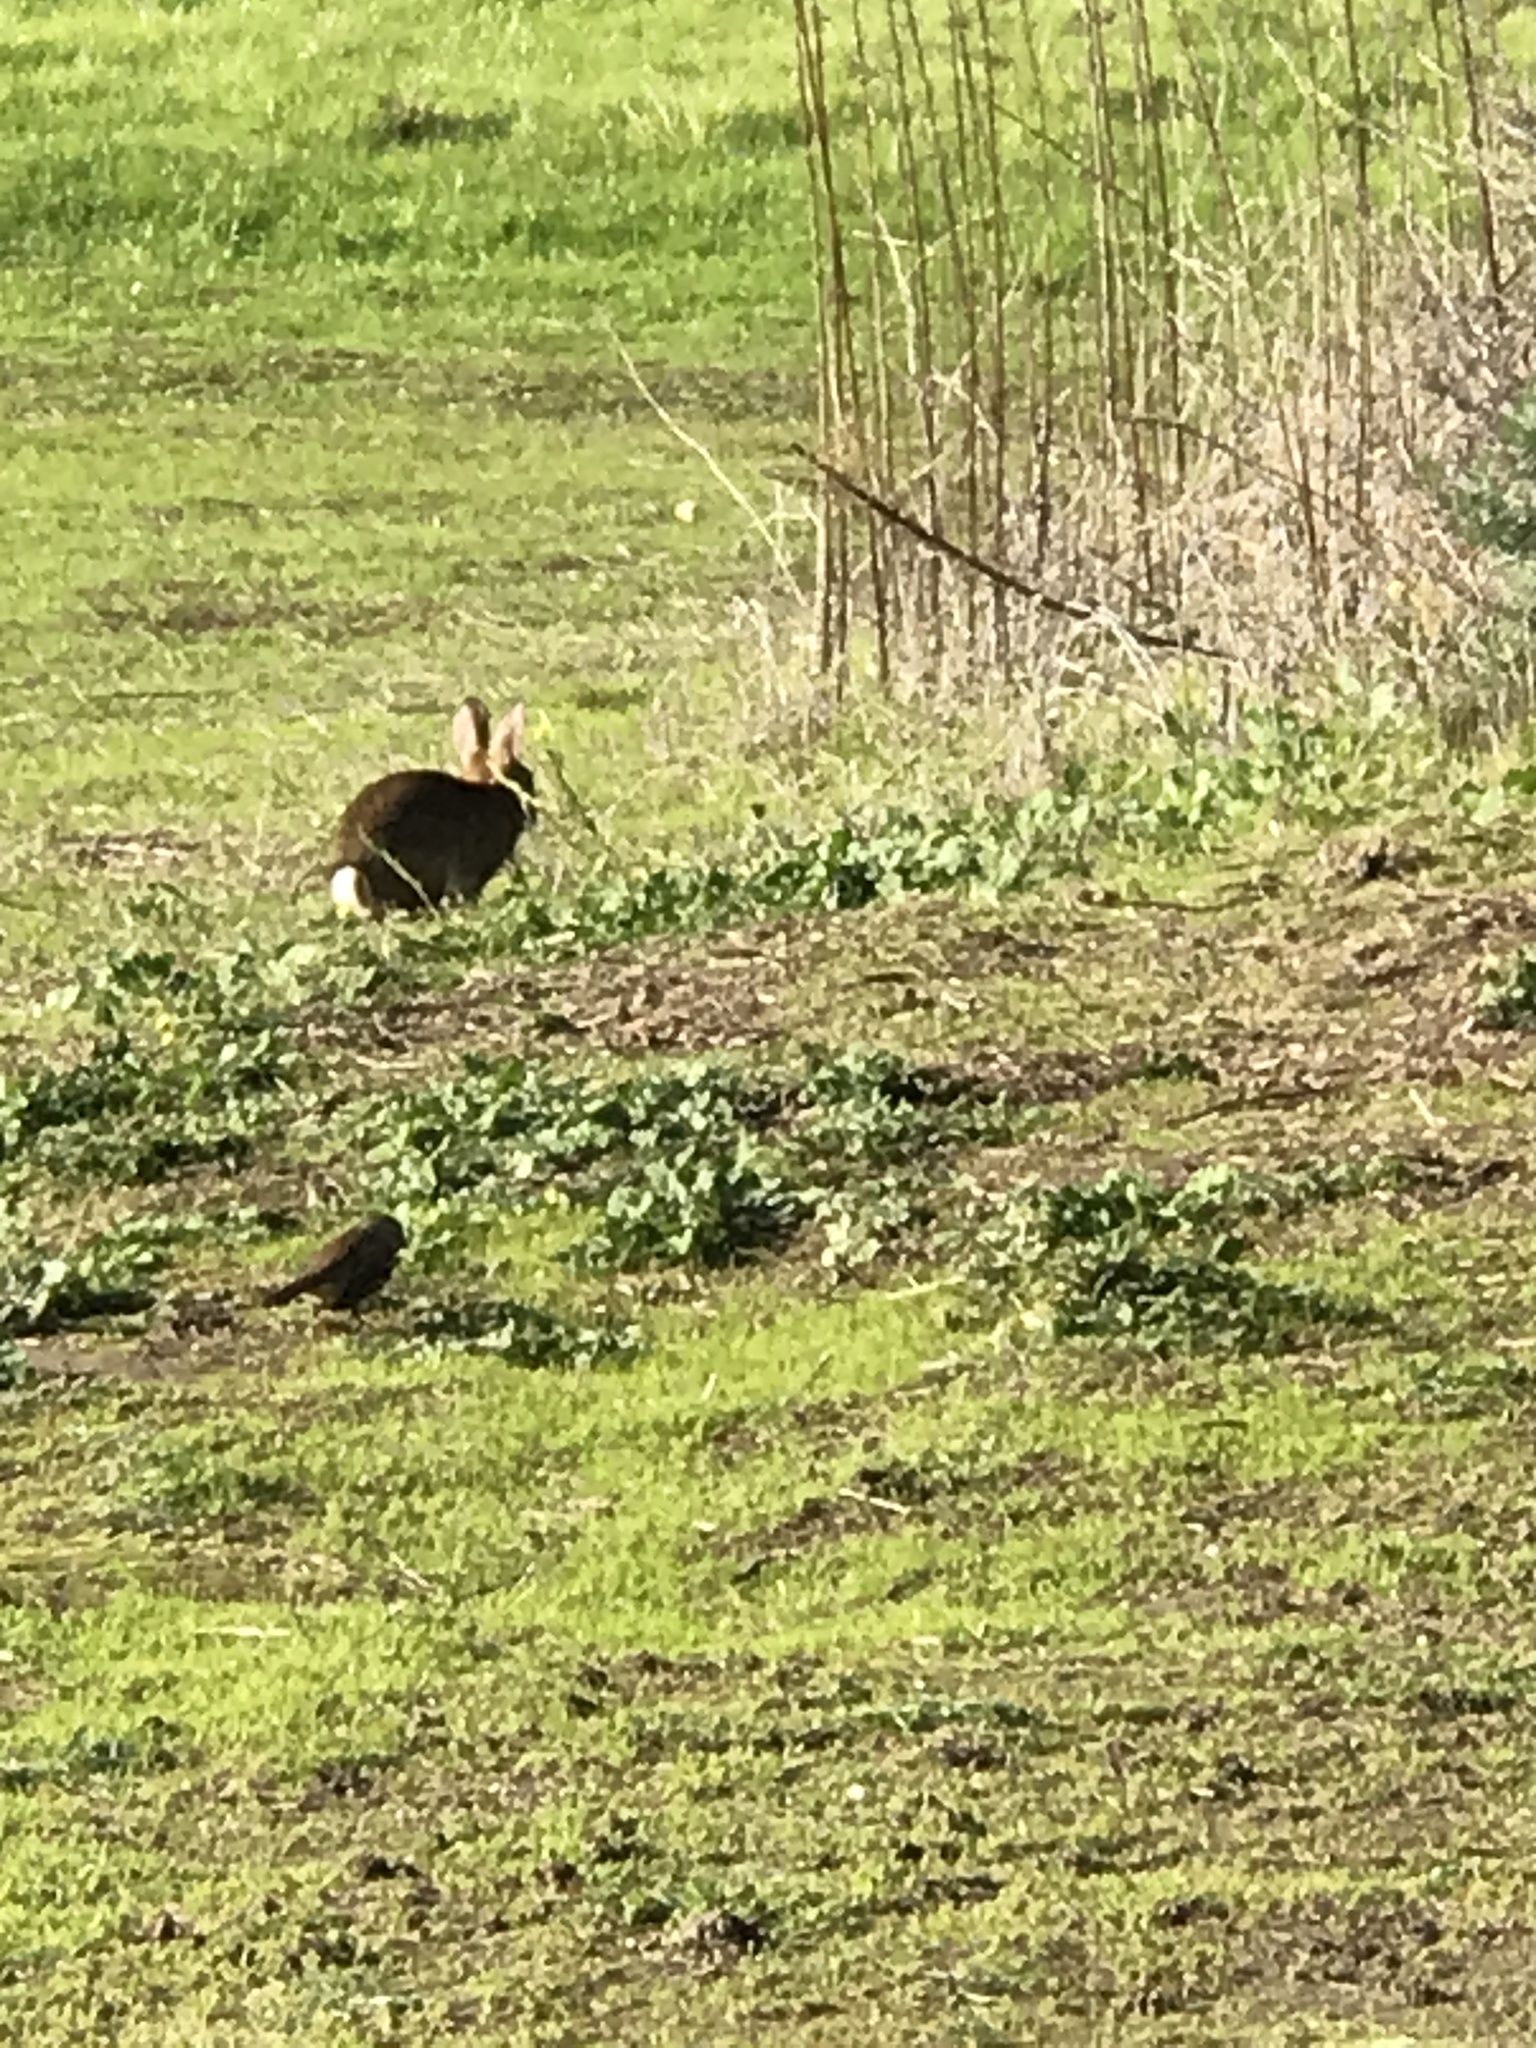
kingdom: Animalia
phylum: Chordata
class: Mammalia
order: Lagomorpha
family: Leporidae
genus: Sylvilagus
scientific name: Sylvilagus bachmani
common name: Brush rabbit
